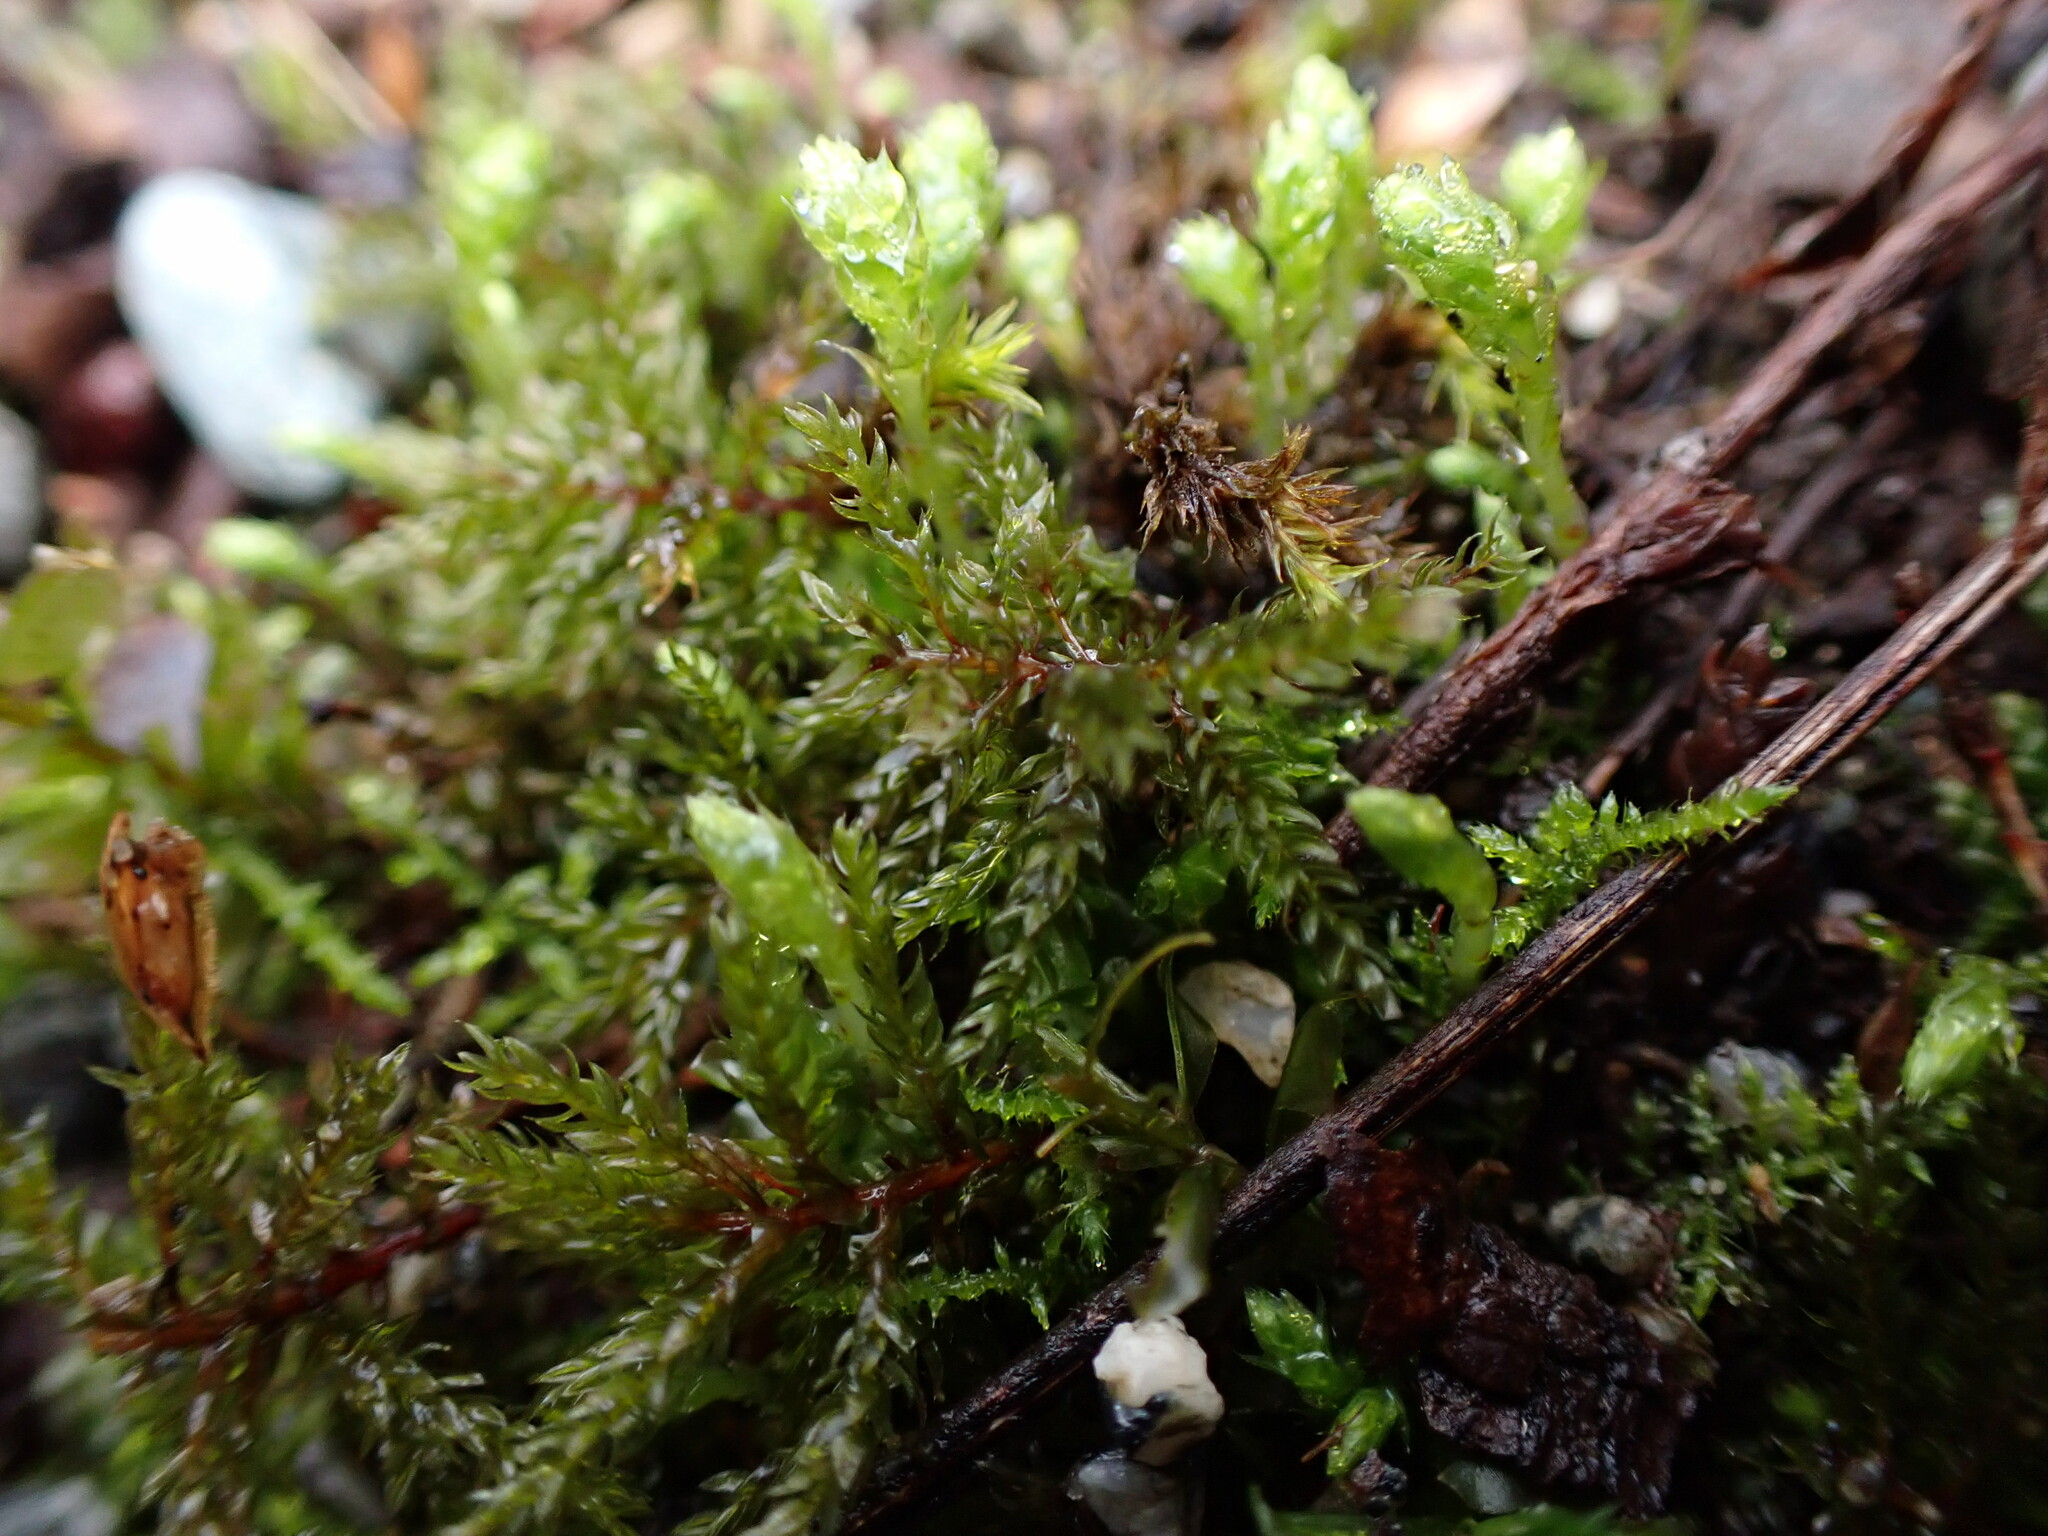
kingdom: Plantae
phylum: Bryophyta
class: Bryopsida
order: Bryales
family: Mniaceae
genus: Leucolepis
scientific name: Leucolepis acanthoneura
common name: Leucolepis umbrella moss
